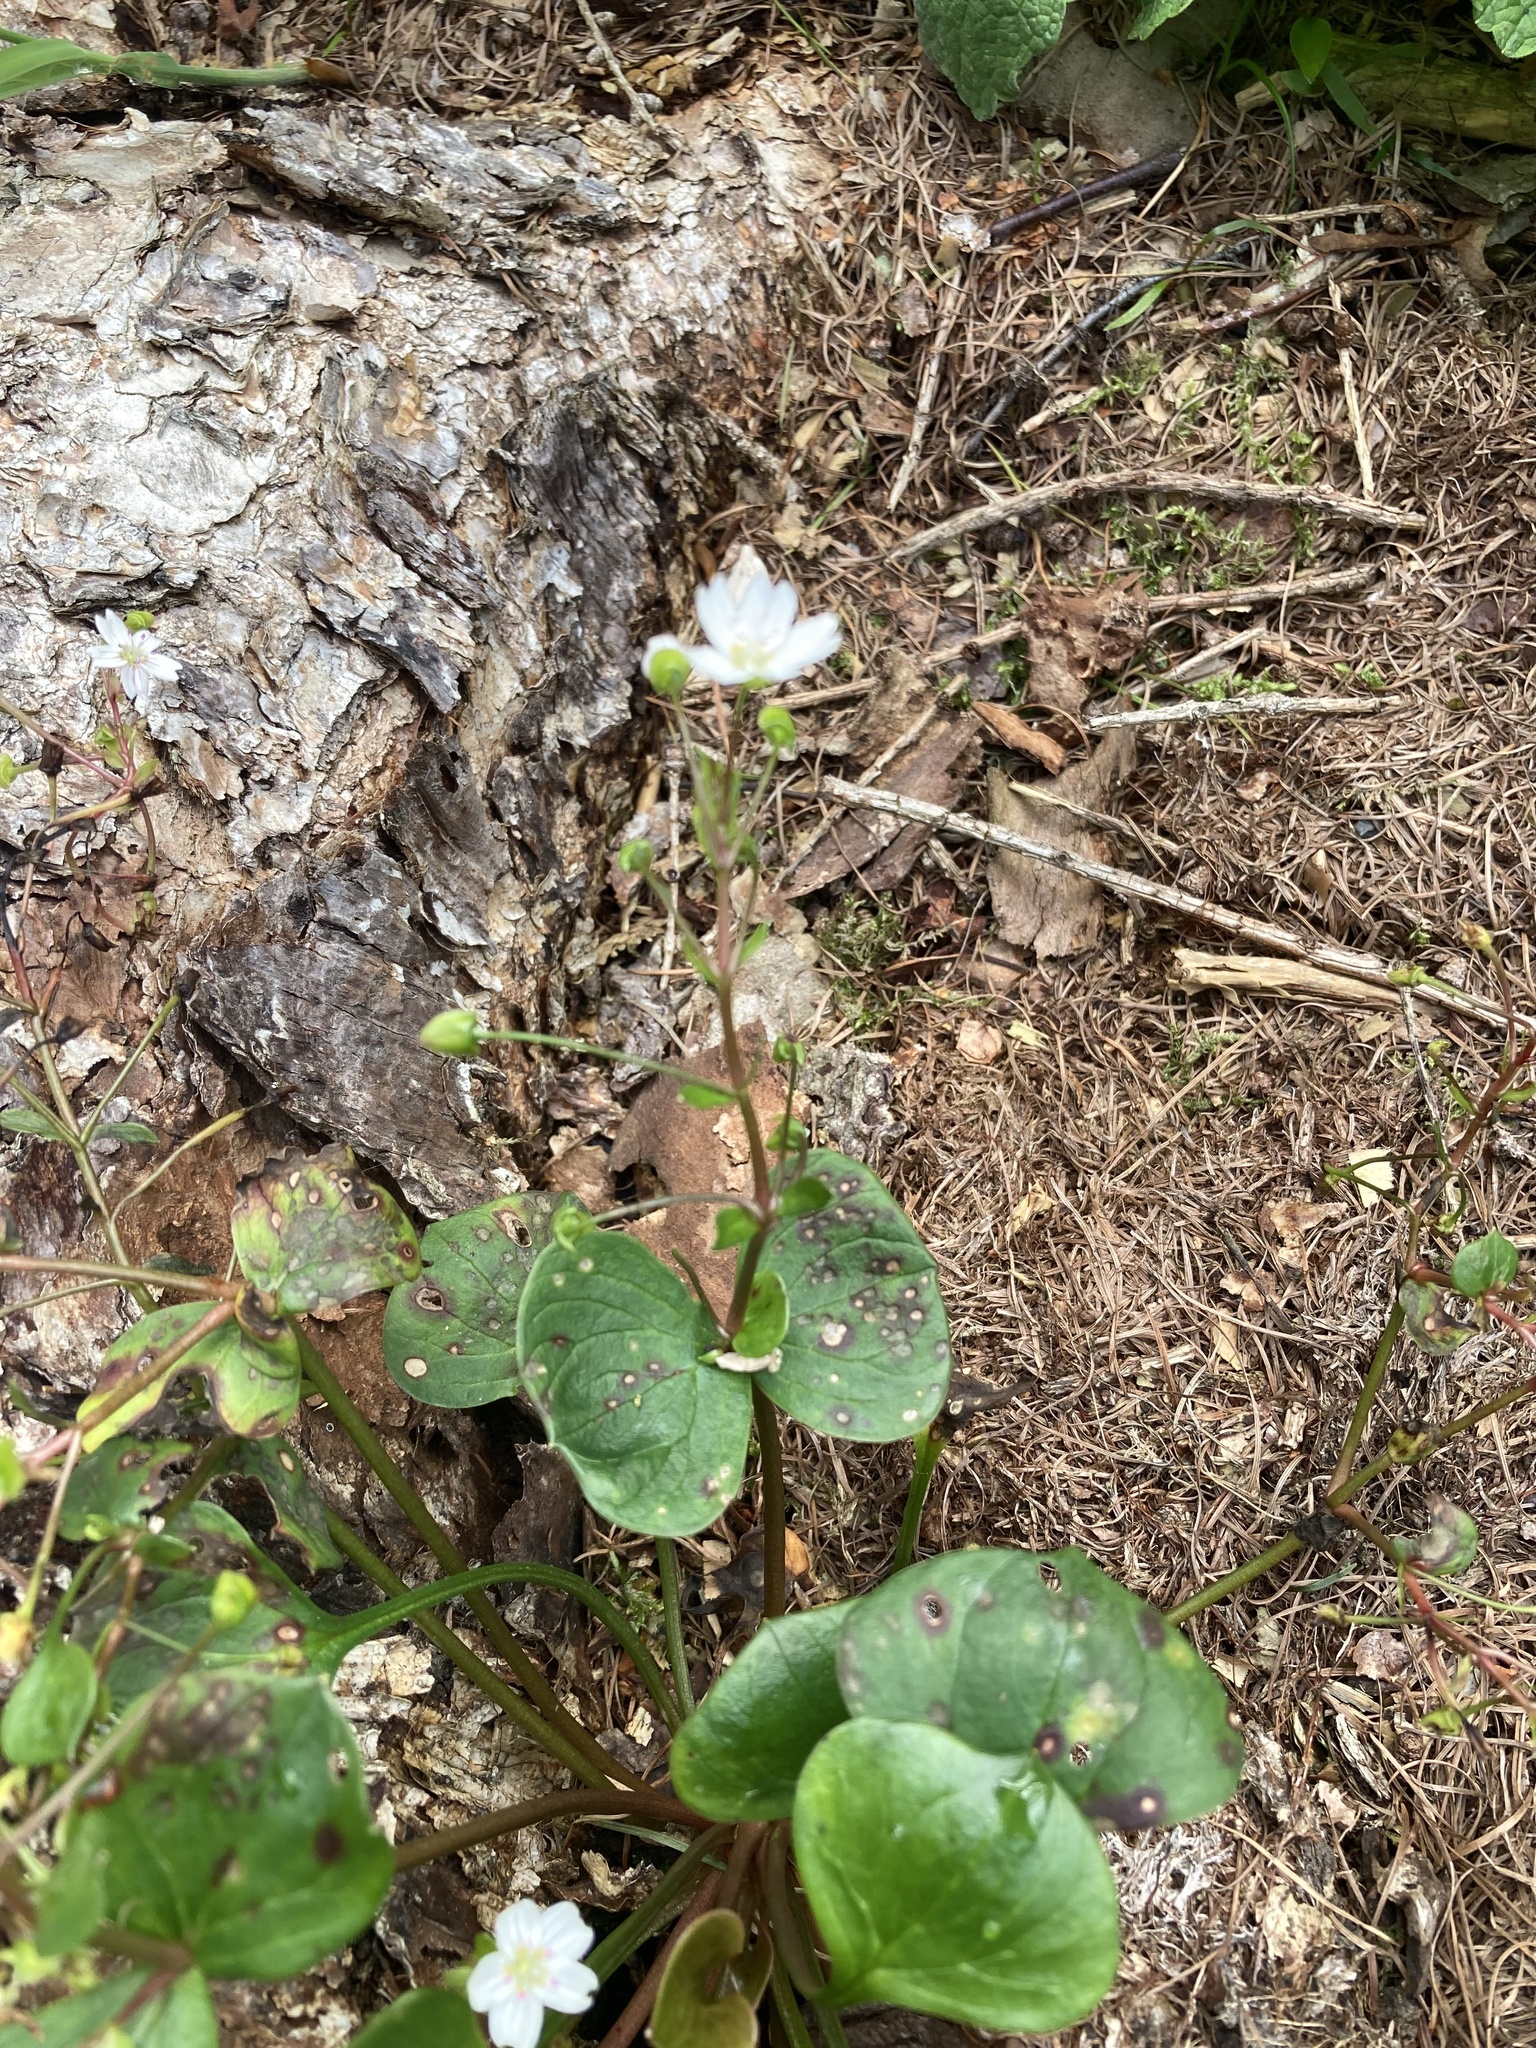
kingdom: Plantae
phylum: Tracheophyta
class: Magnoliopsida
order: Caryophyllales
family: Montiaceae
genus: Claytonia
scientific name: Claytonia sibirica
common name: Pink purslane
